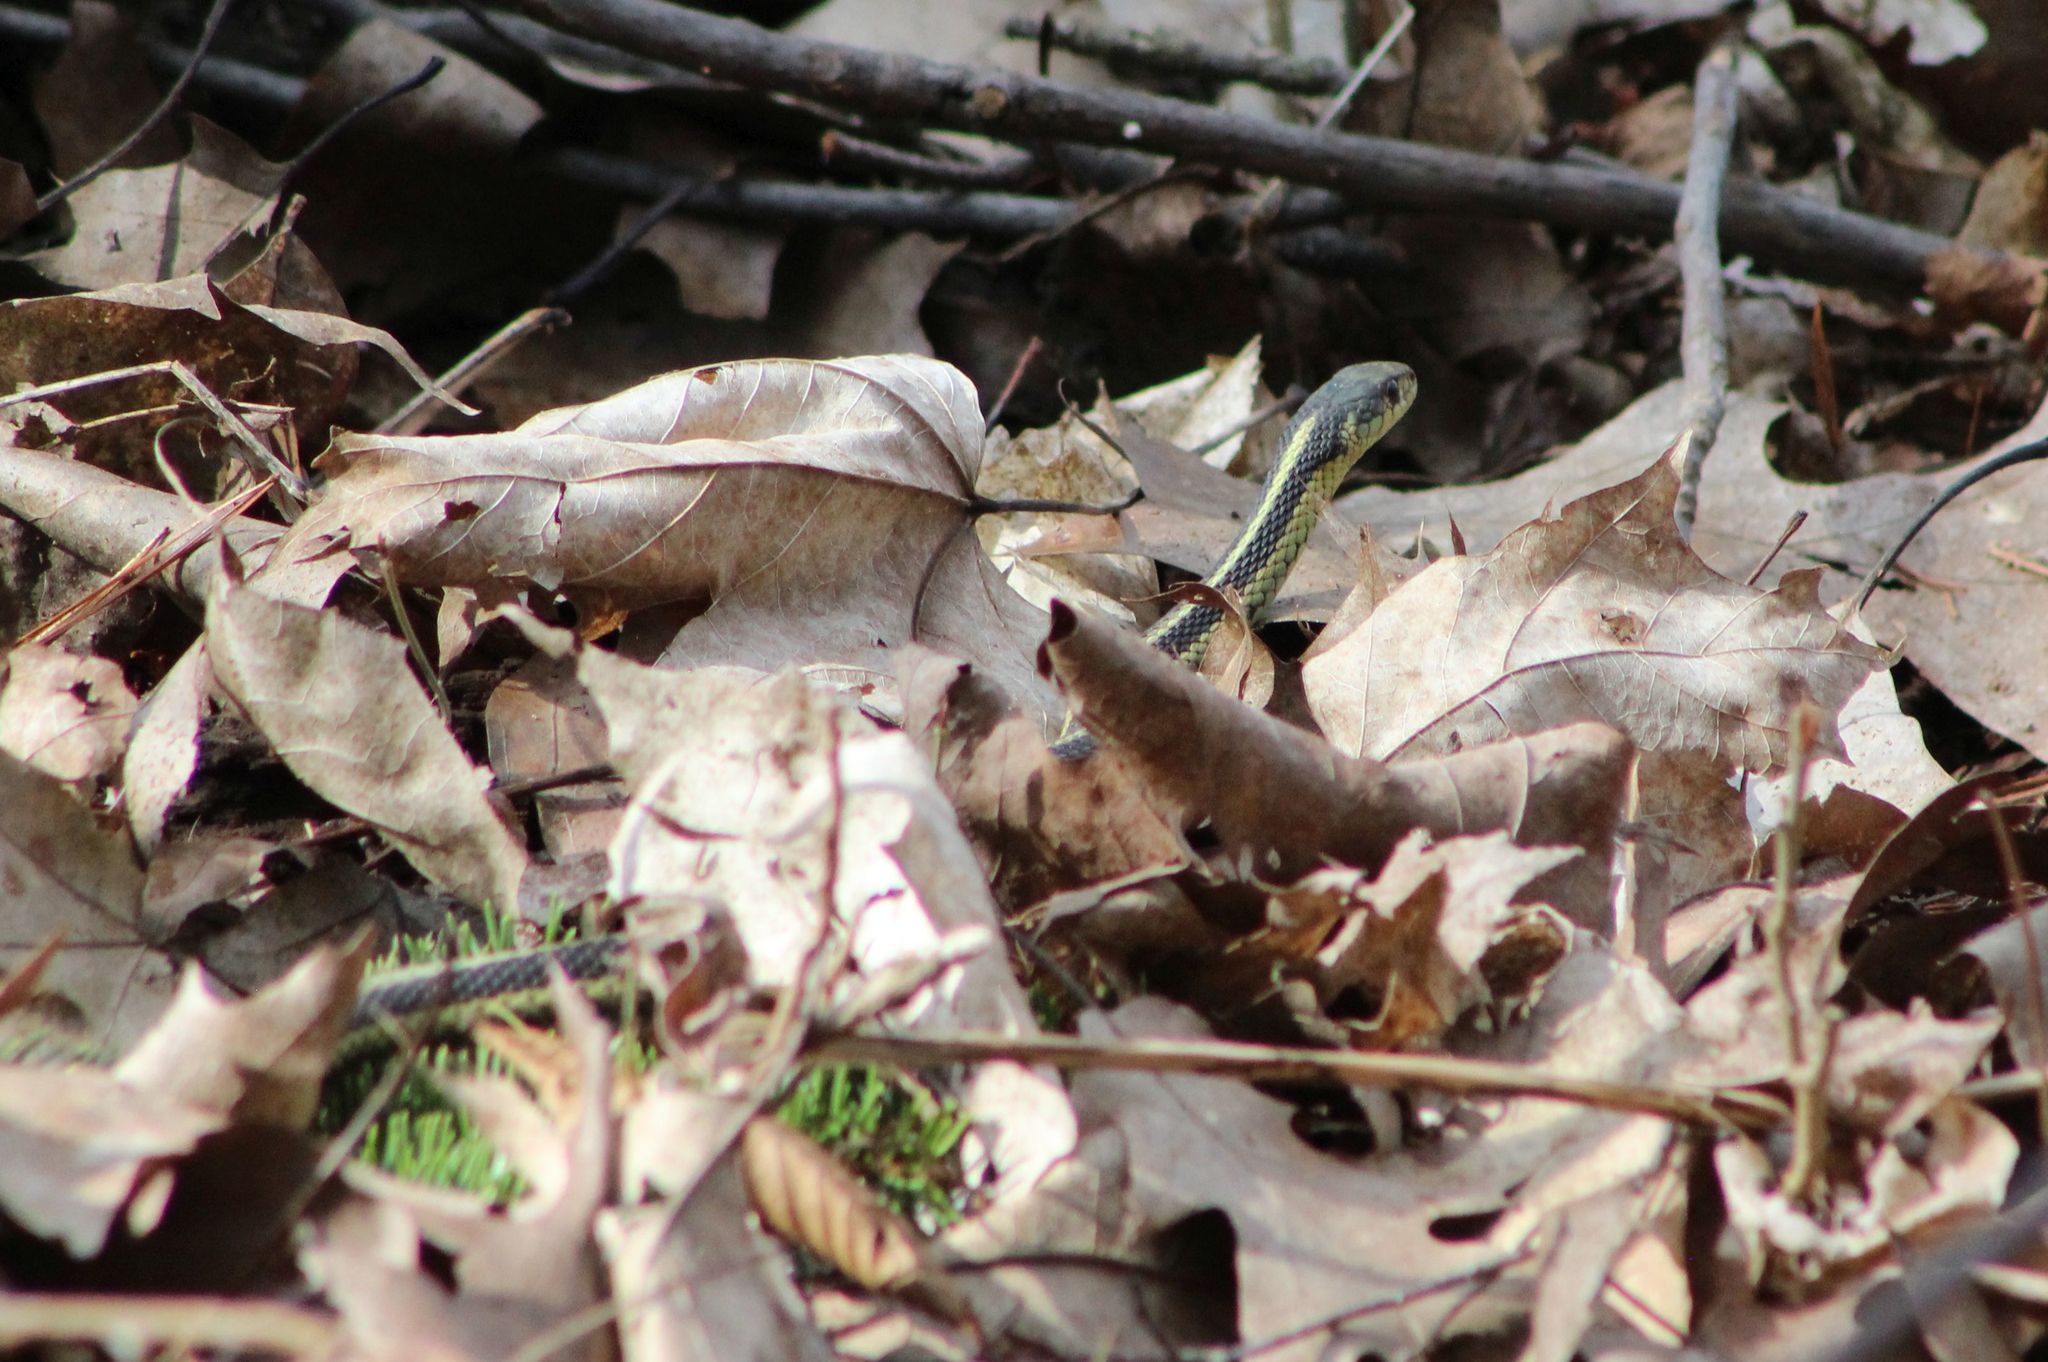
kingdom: Animalia
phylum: Chordata
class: Squamata
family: Colubridae
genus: Thamnophis
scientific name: Thamnophis sirtalis
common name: Common garter snake
